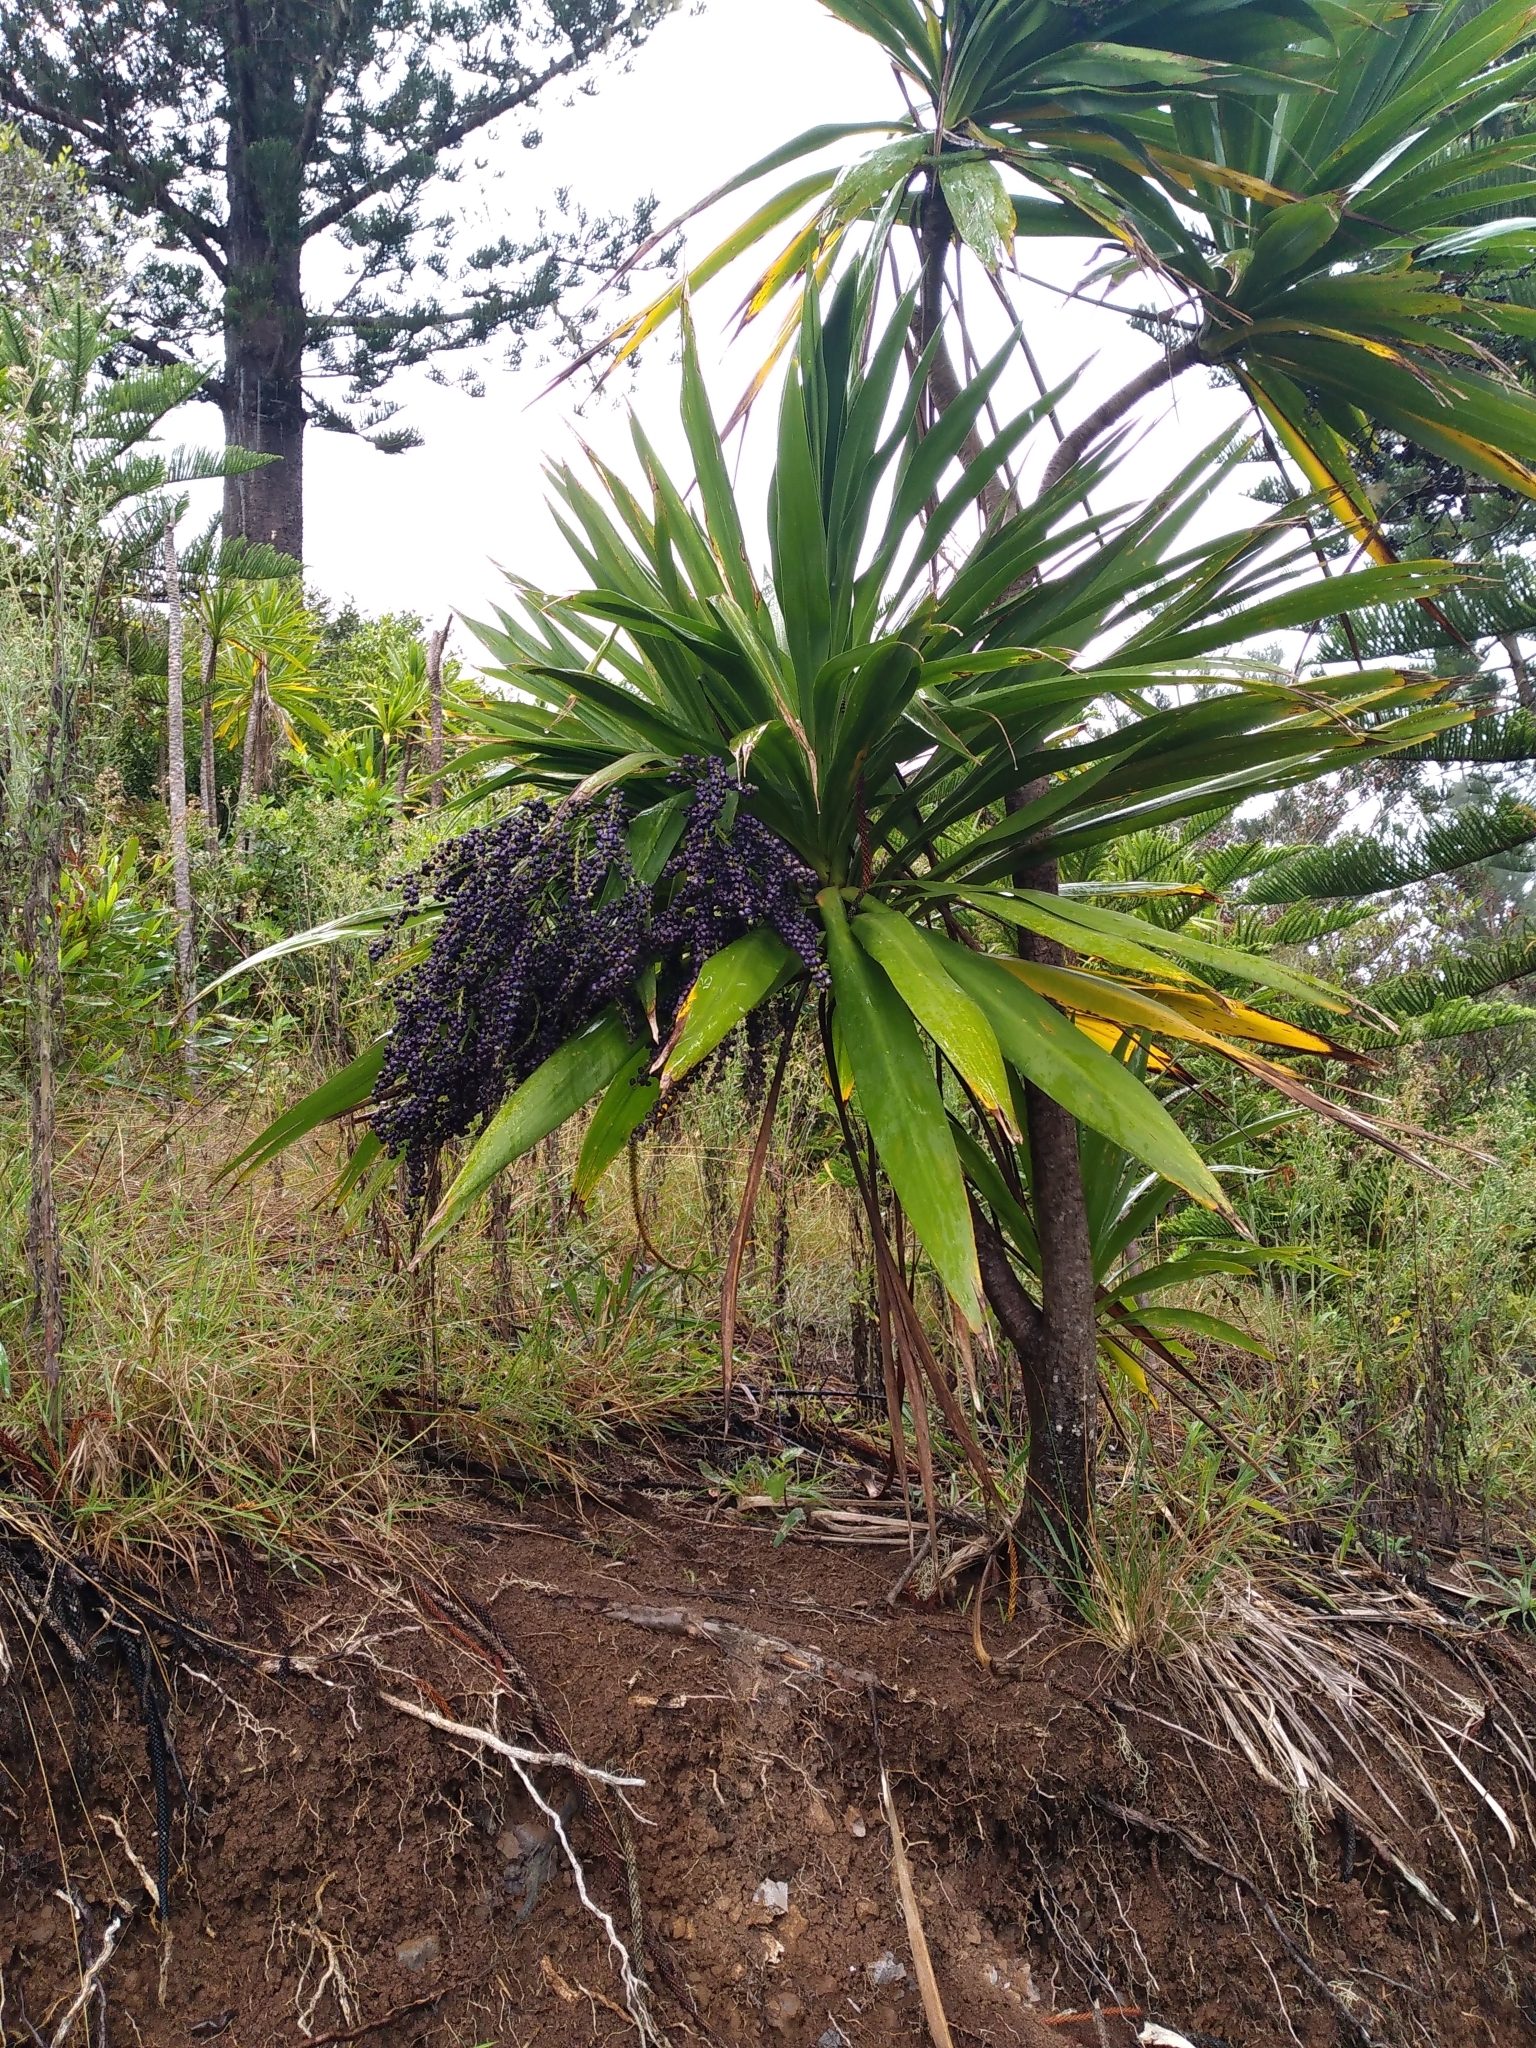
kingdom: Plantae
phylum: Tracheophyta
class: Liliopsida
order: Asparagales
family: Asparagaceae
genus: Cordyline
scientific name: Cordyline obtecta
